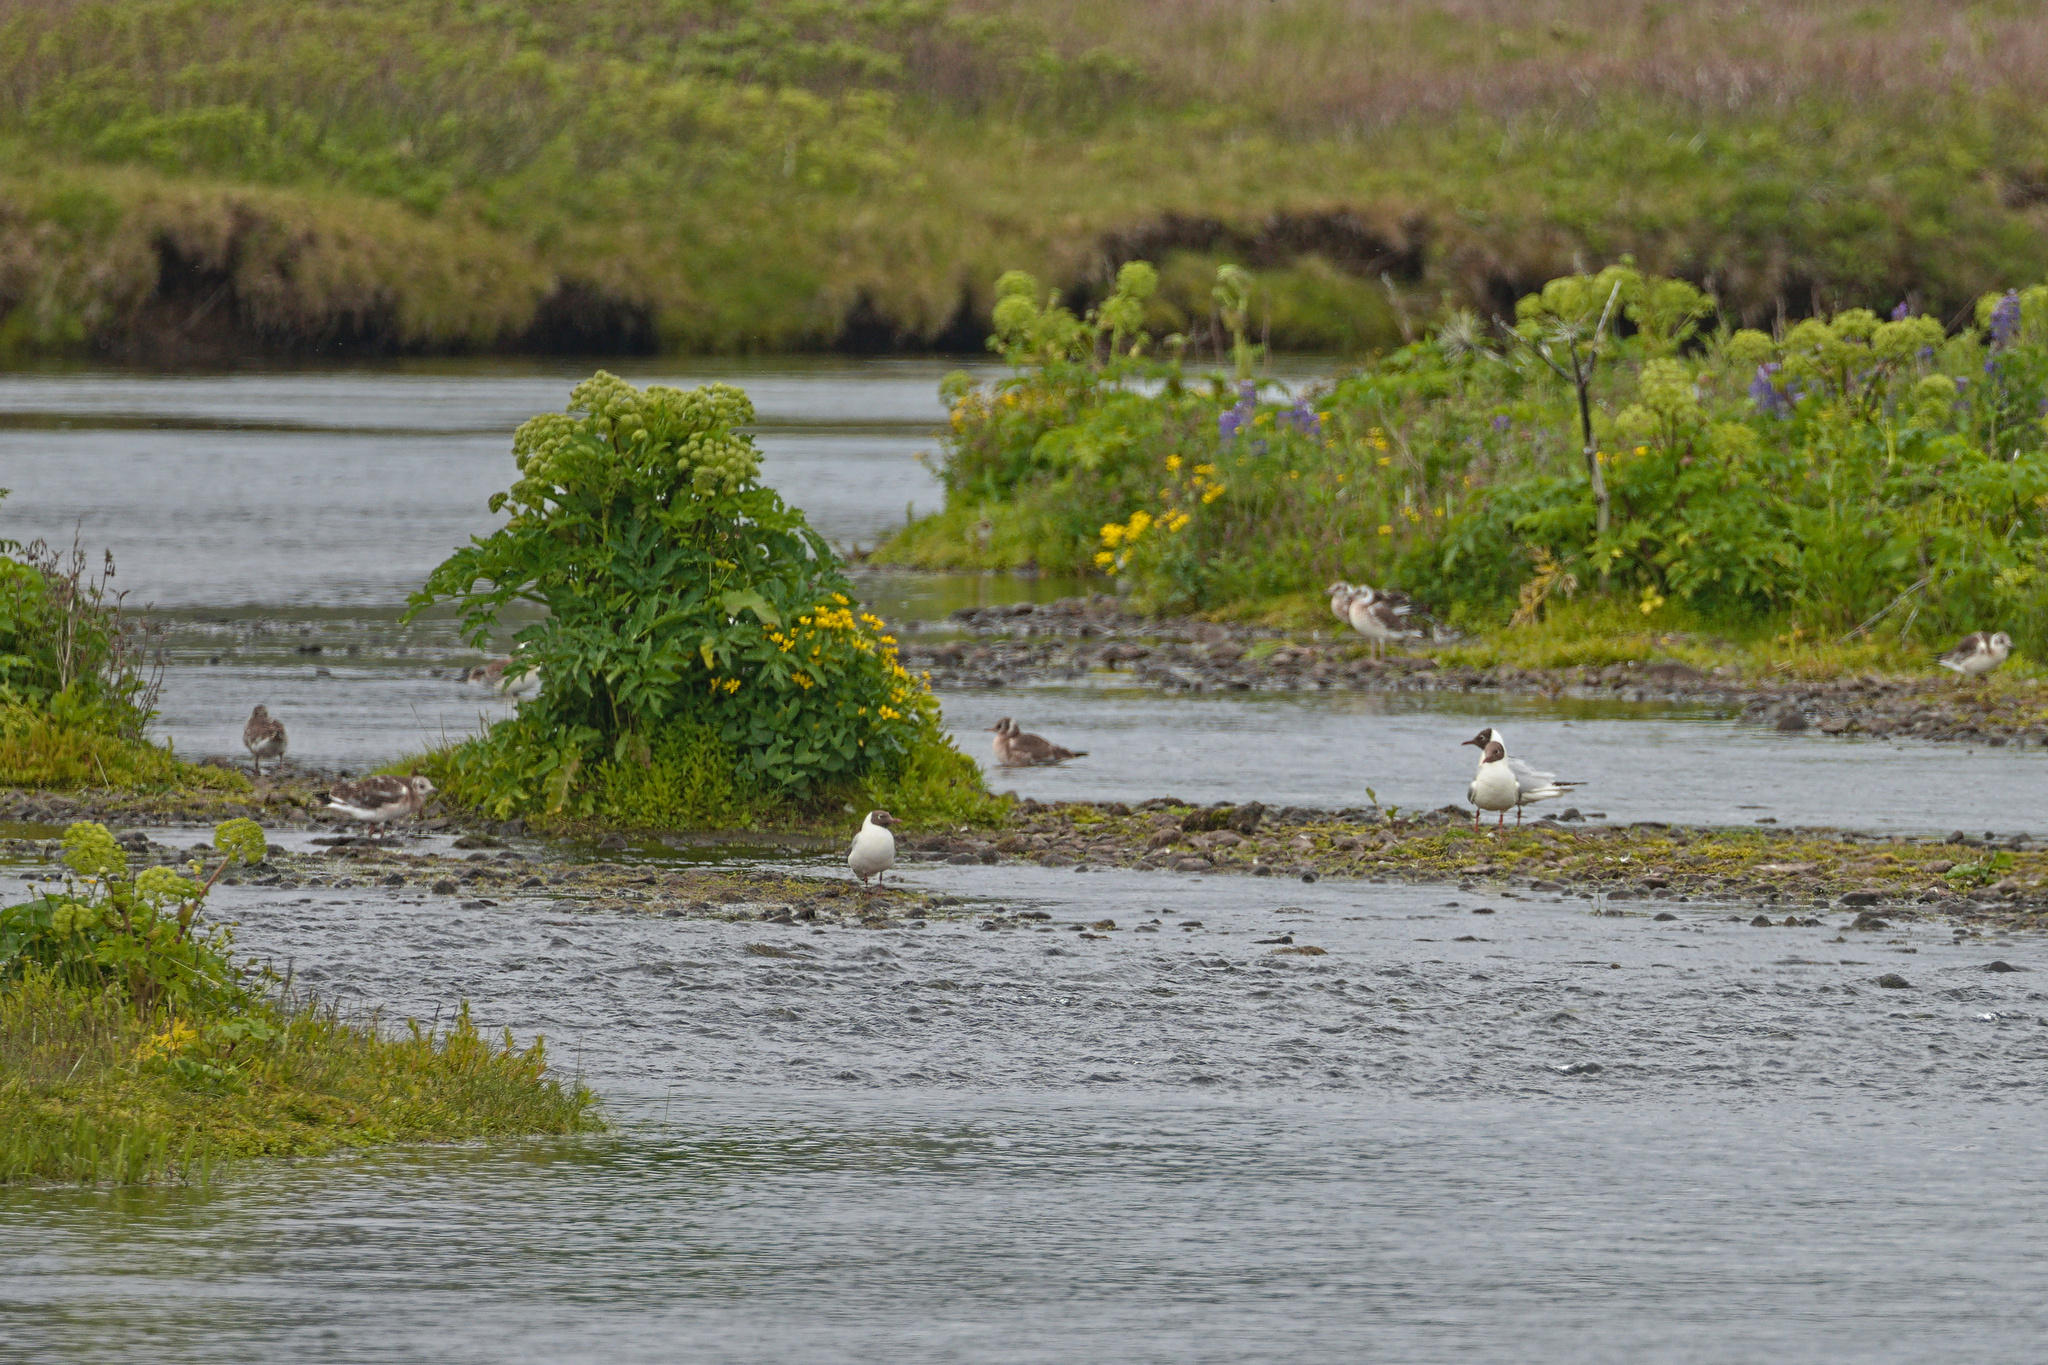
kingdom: Animalia
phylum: Chordata
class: Aves
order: Charadriiformes
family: Laridae
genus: Chroicocephalus
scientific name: Chroicocephalus ridibundus
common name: Black-headed gull
